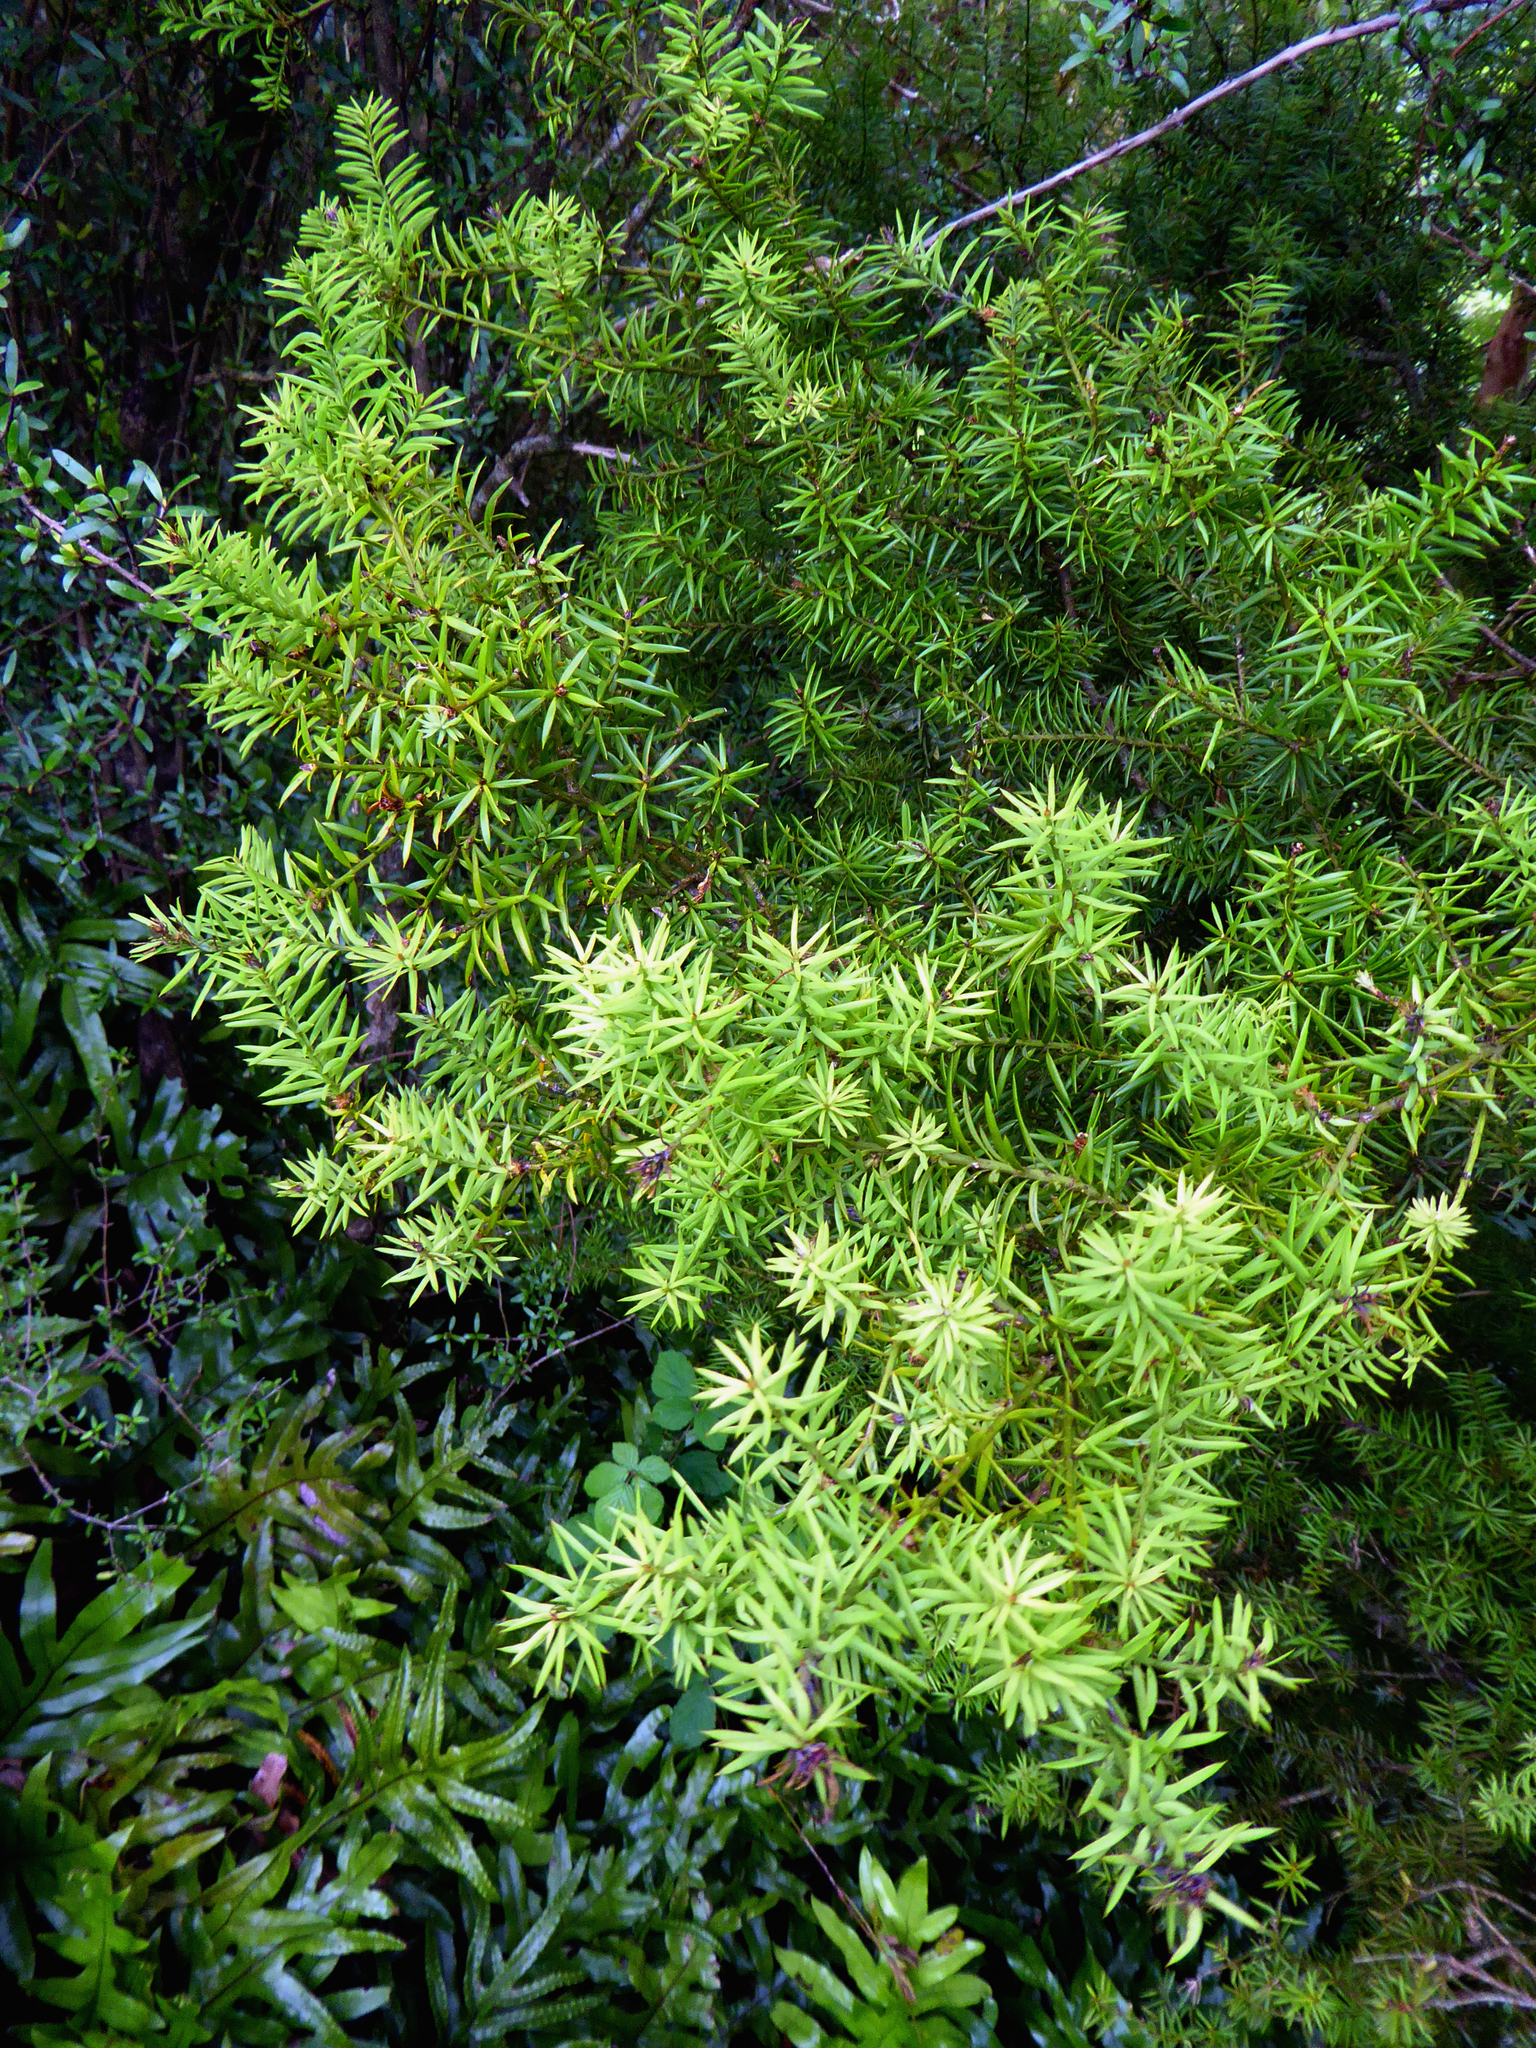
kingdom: Plantae
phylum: Tracheophyta
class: Pinopsida
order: Pinales
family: Podocarpaceae
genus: Podocarpus
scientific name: Podocarpus acutifolius
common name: Needle-leaved totara
